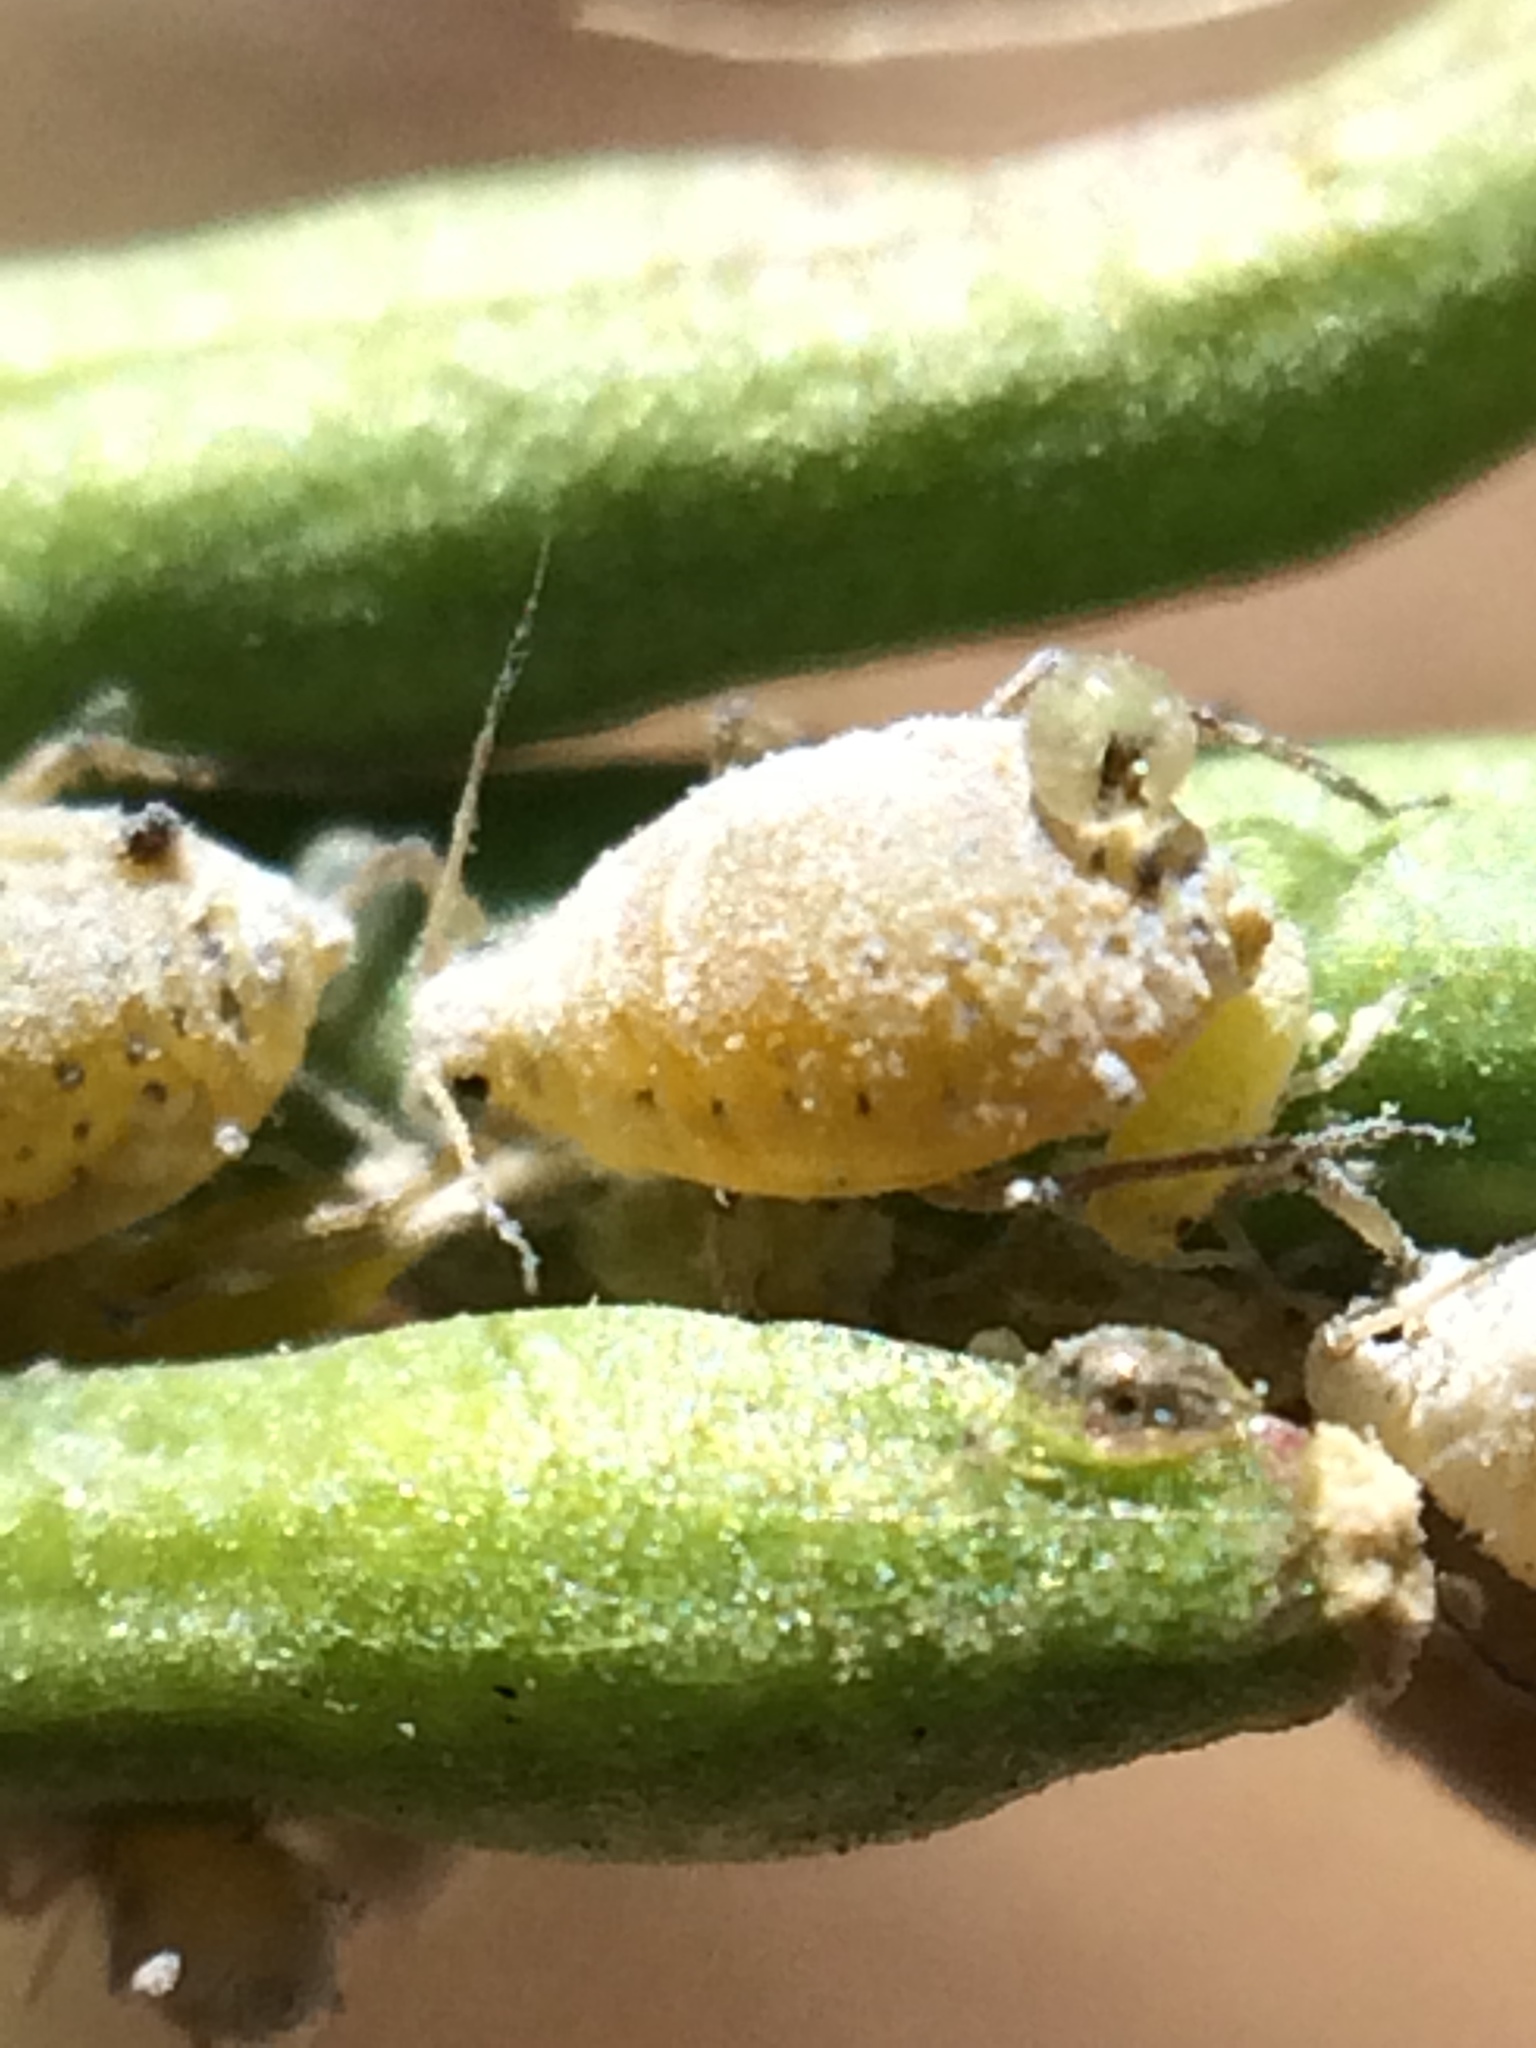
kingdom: Animalia
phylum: Arthropoda
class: Insecta
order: Hemiptera
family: Aphididae
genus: Brevicoryne
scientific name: Brevicoryne brassicae
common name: Cabbage aphid
